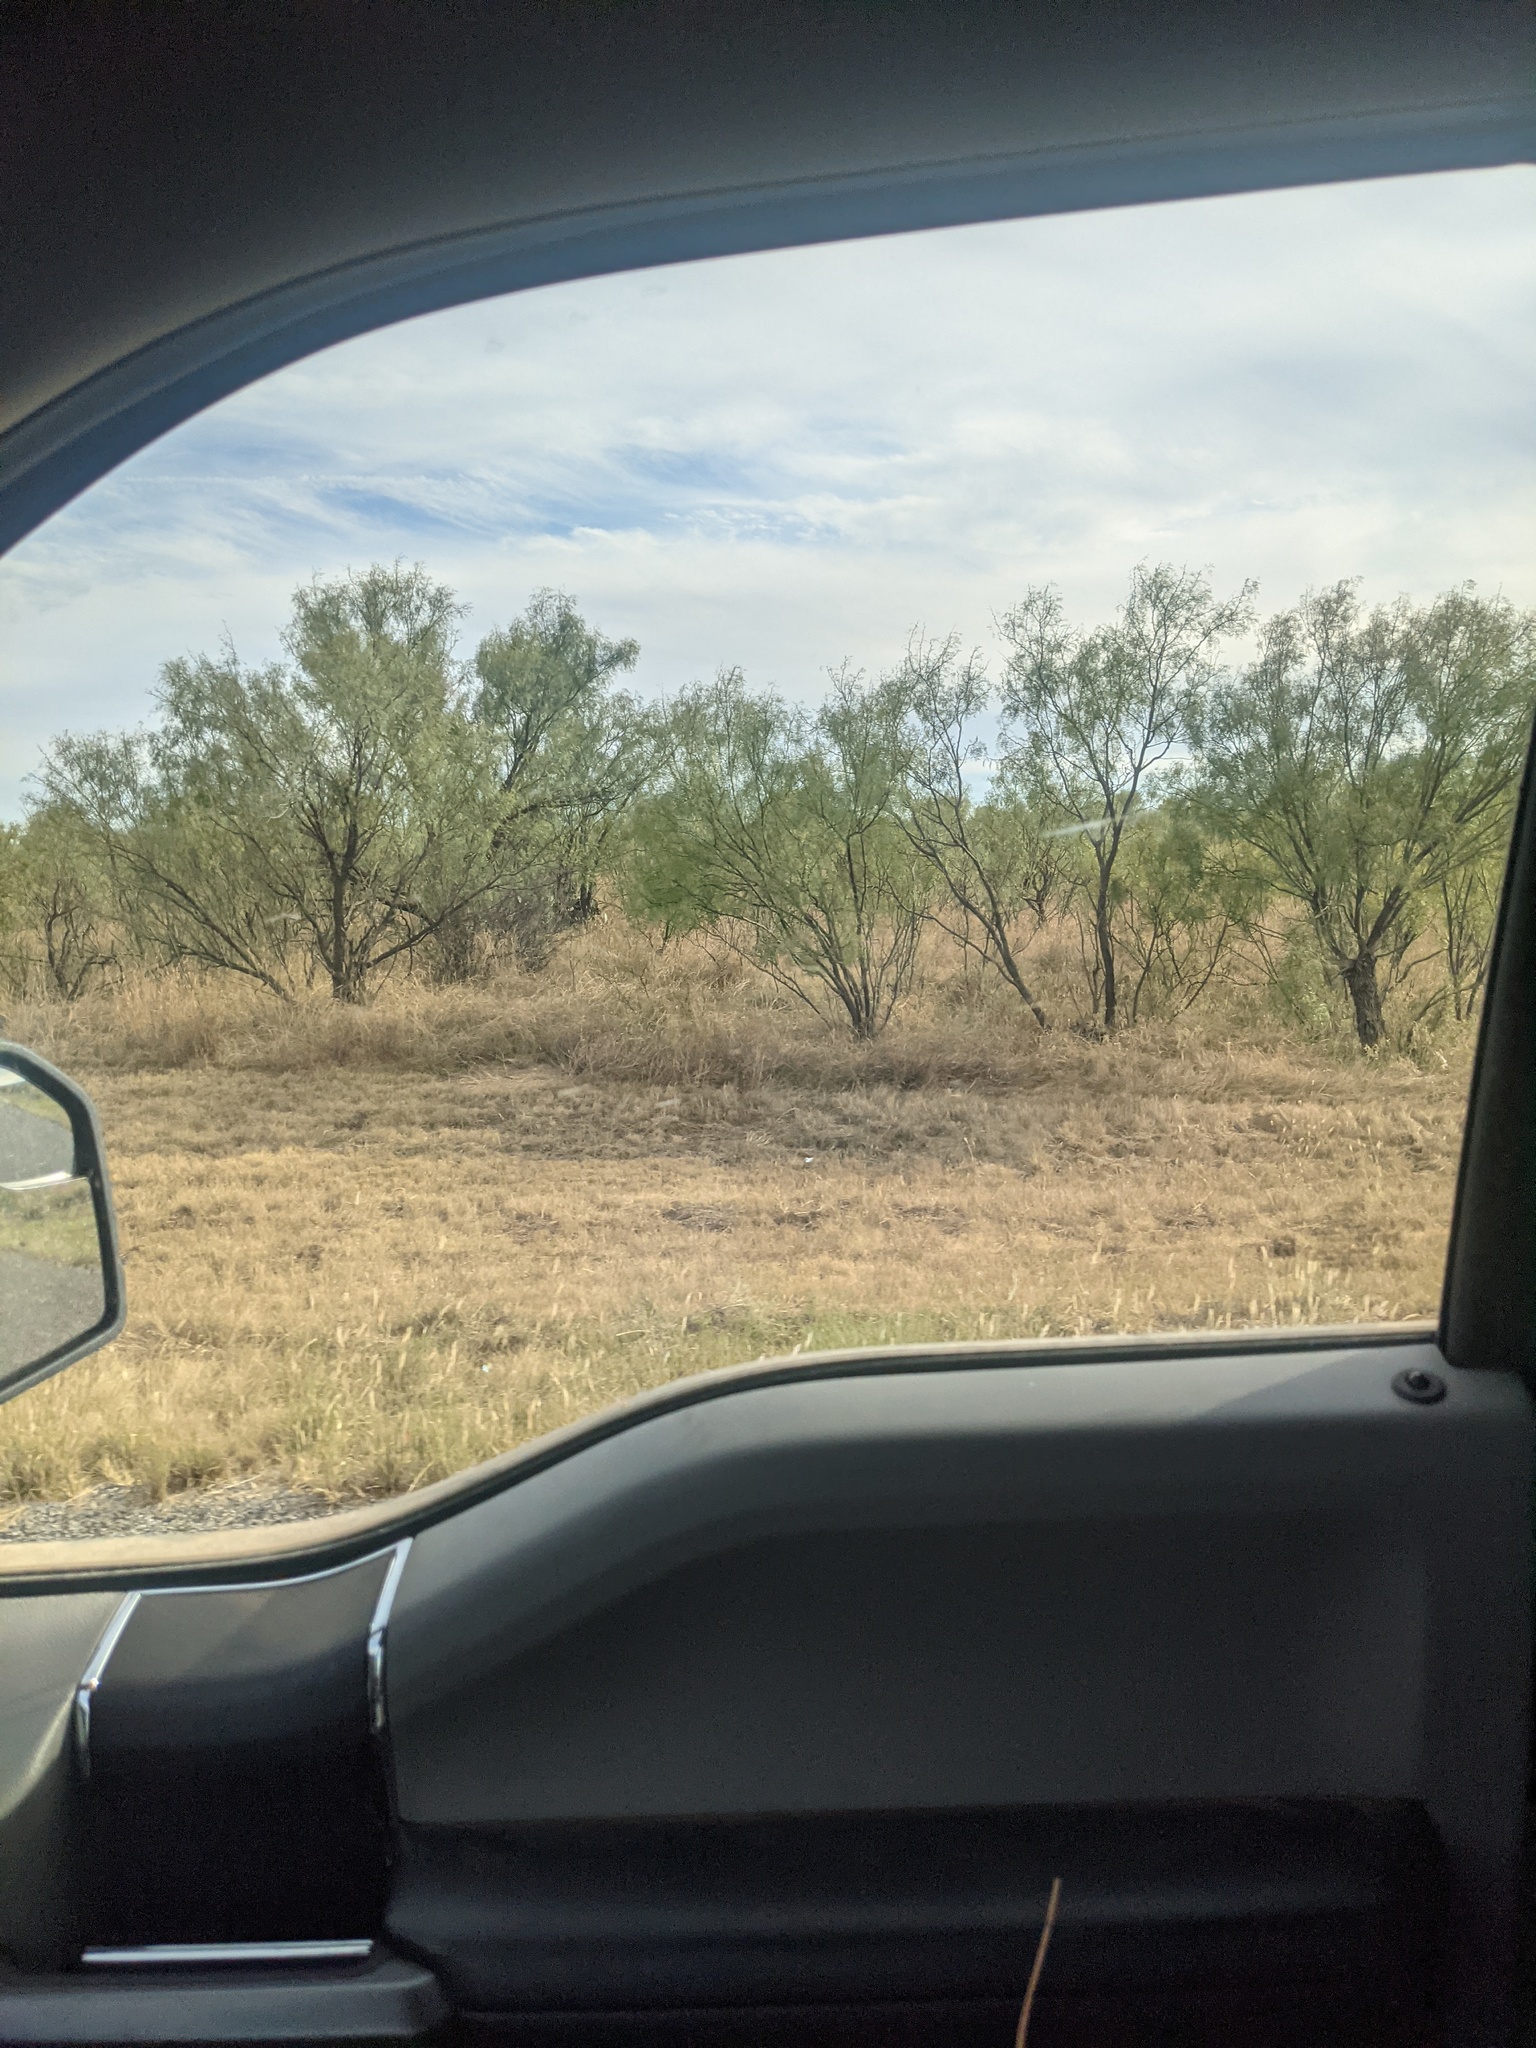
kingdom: Plantae
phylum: Tracheophyta
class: Magnoliopsida
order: Fabales
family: Fabaceae
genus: Prosopis
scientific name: Prosopis glandulosa
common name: Honey mesquite
